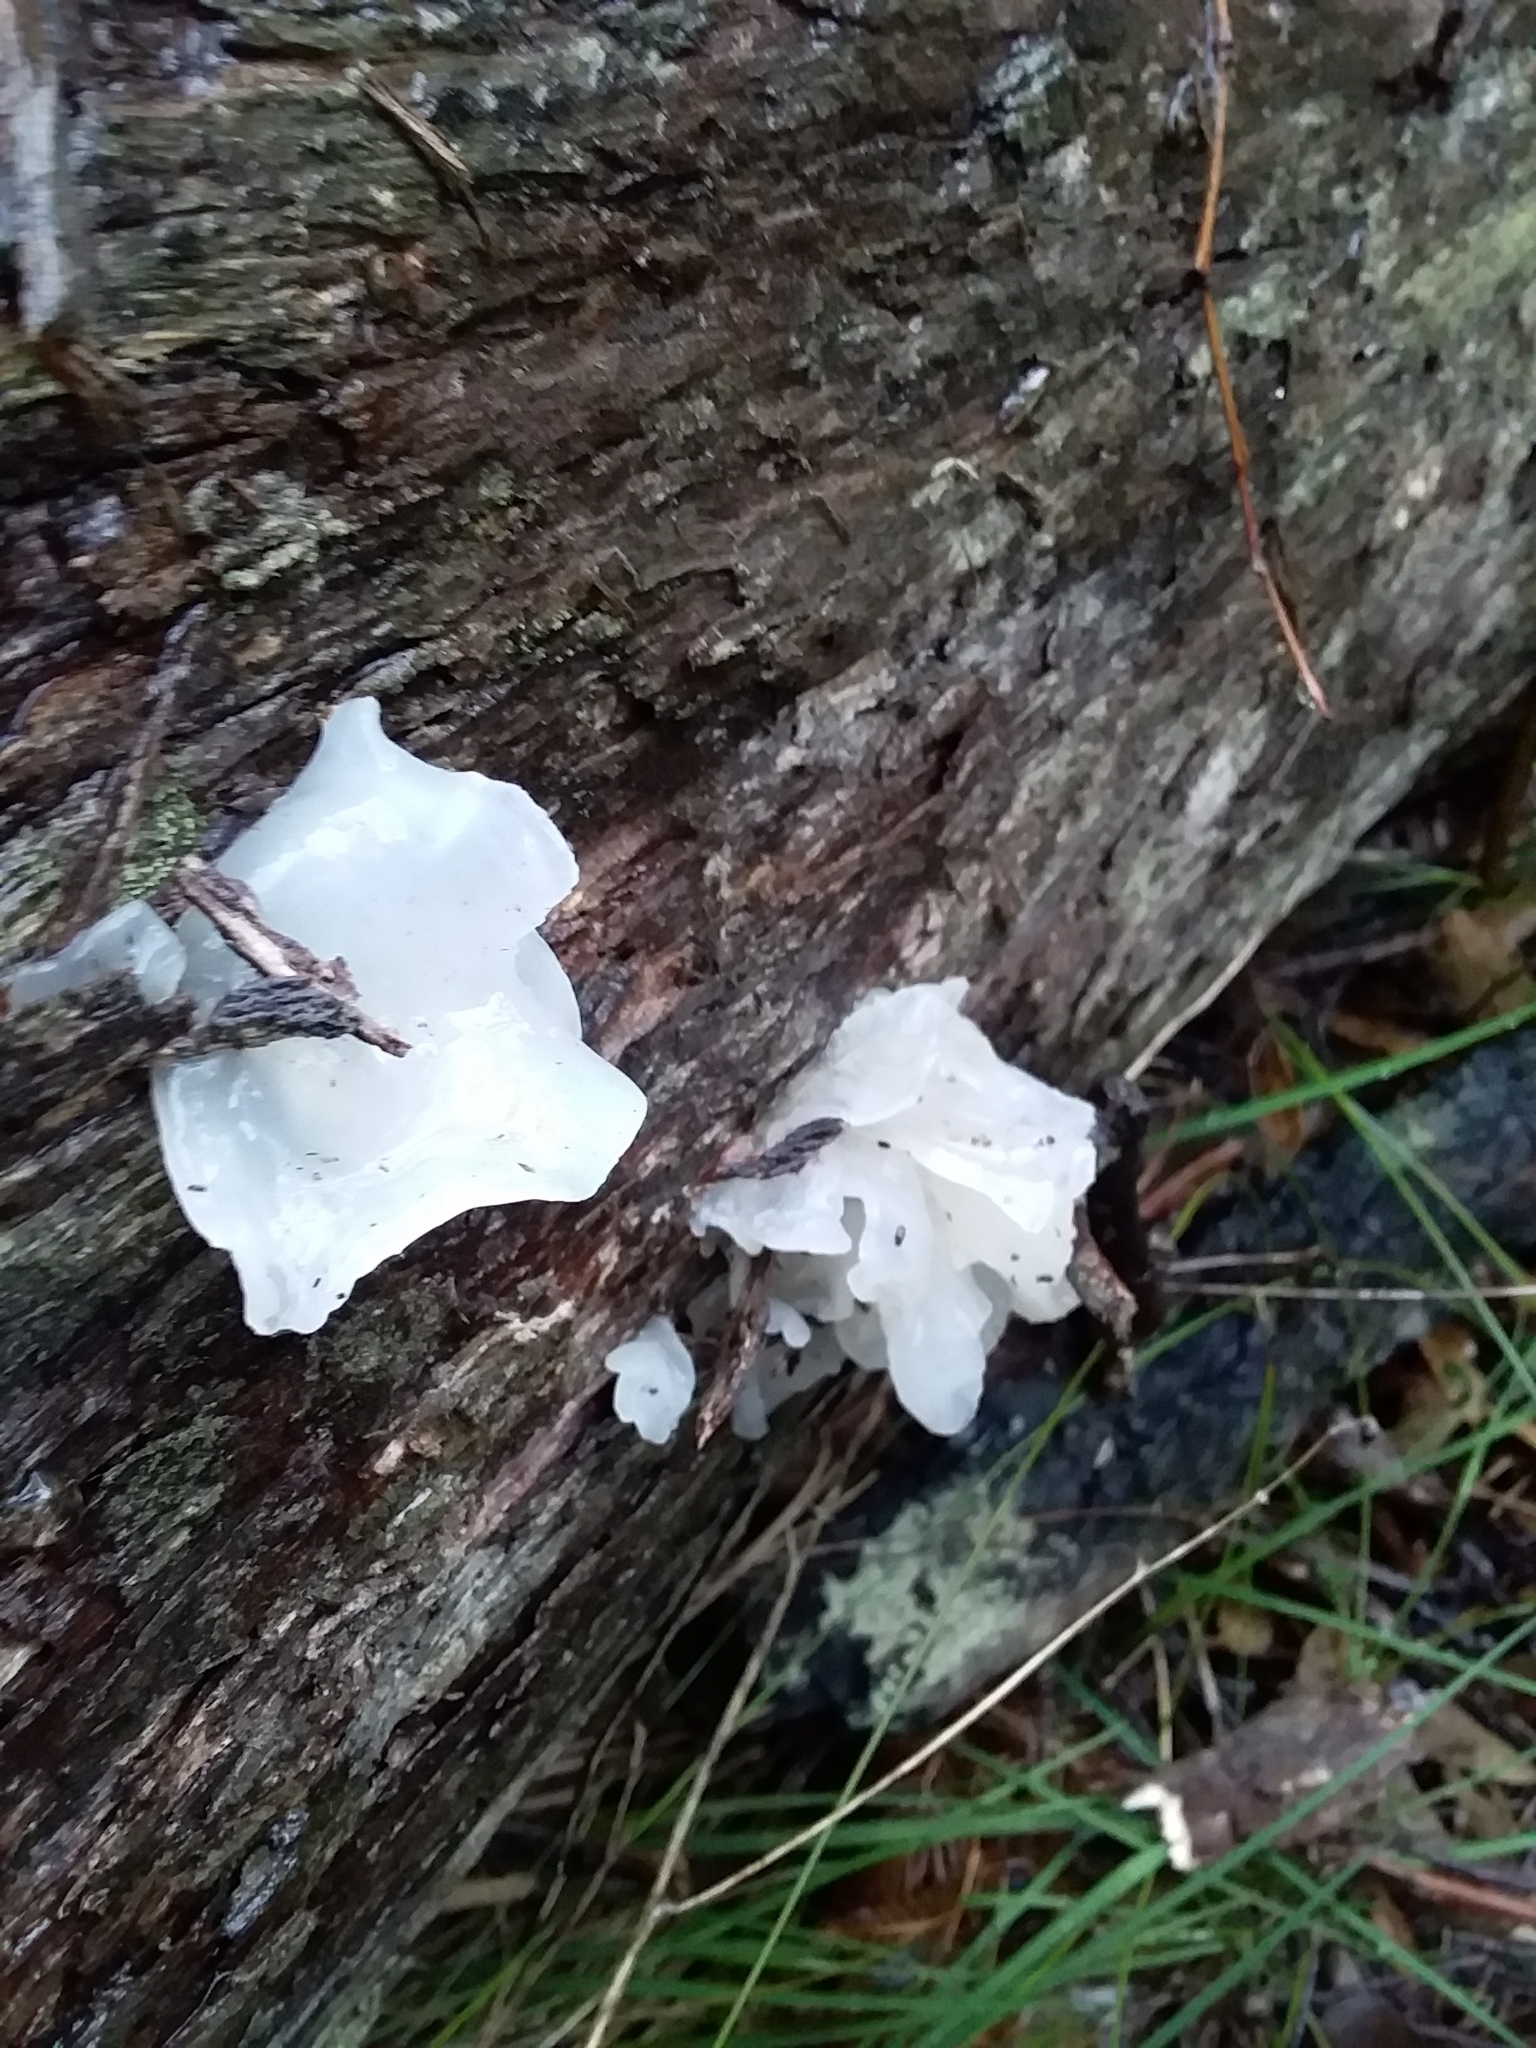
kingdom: Fungi
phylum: Basidiomycota
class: Tremellomycetes
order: Tremellales
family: Tremellaceae
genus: Tremella
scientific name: Tremella fuciformis
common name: Snow fungus
